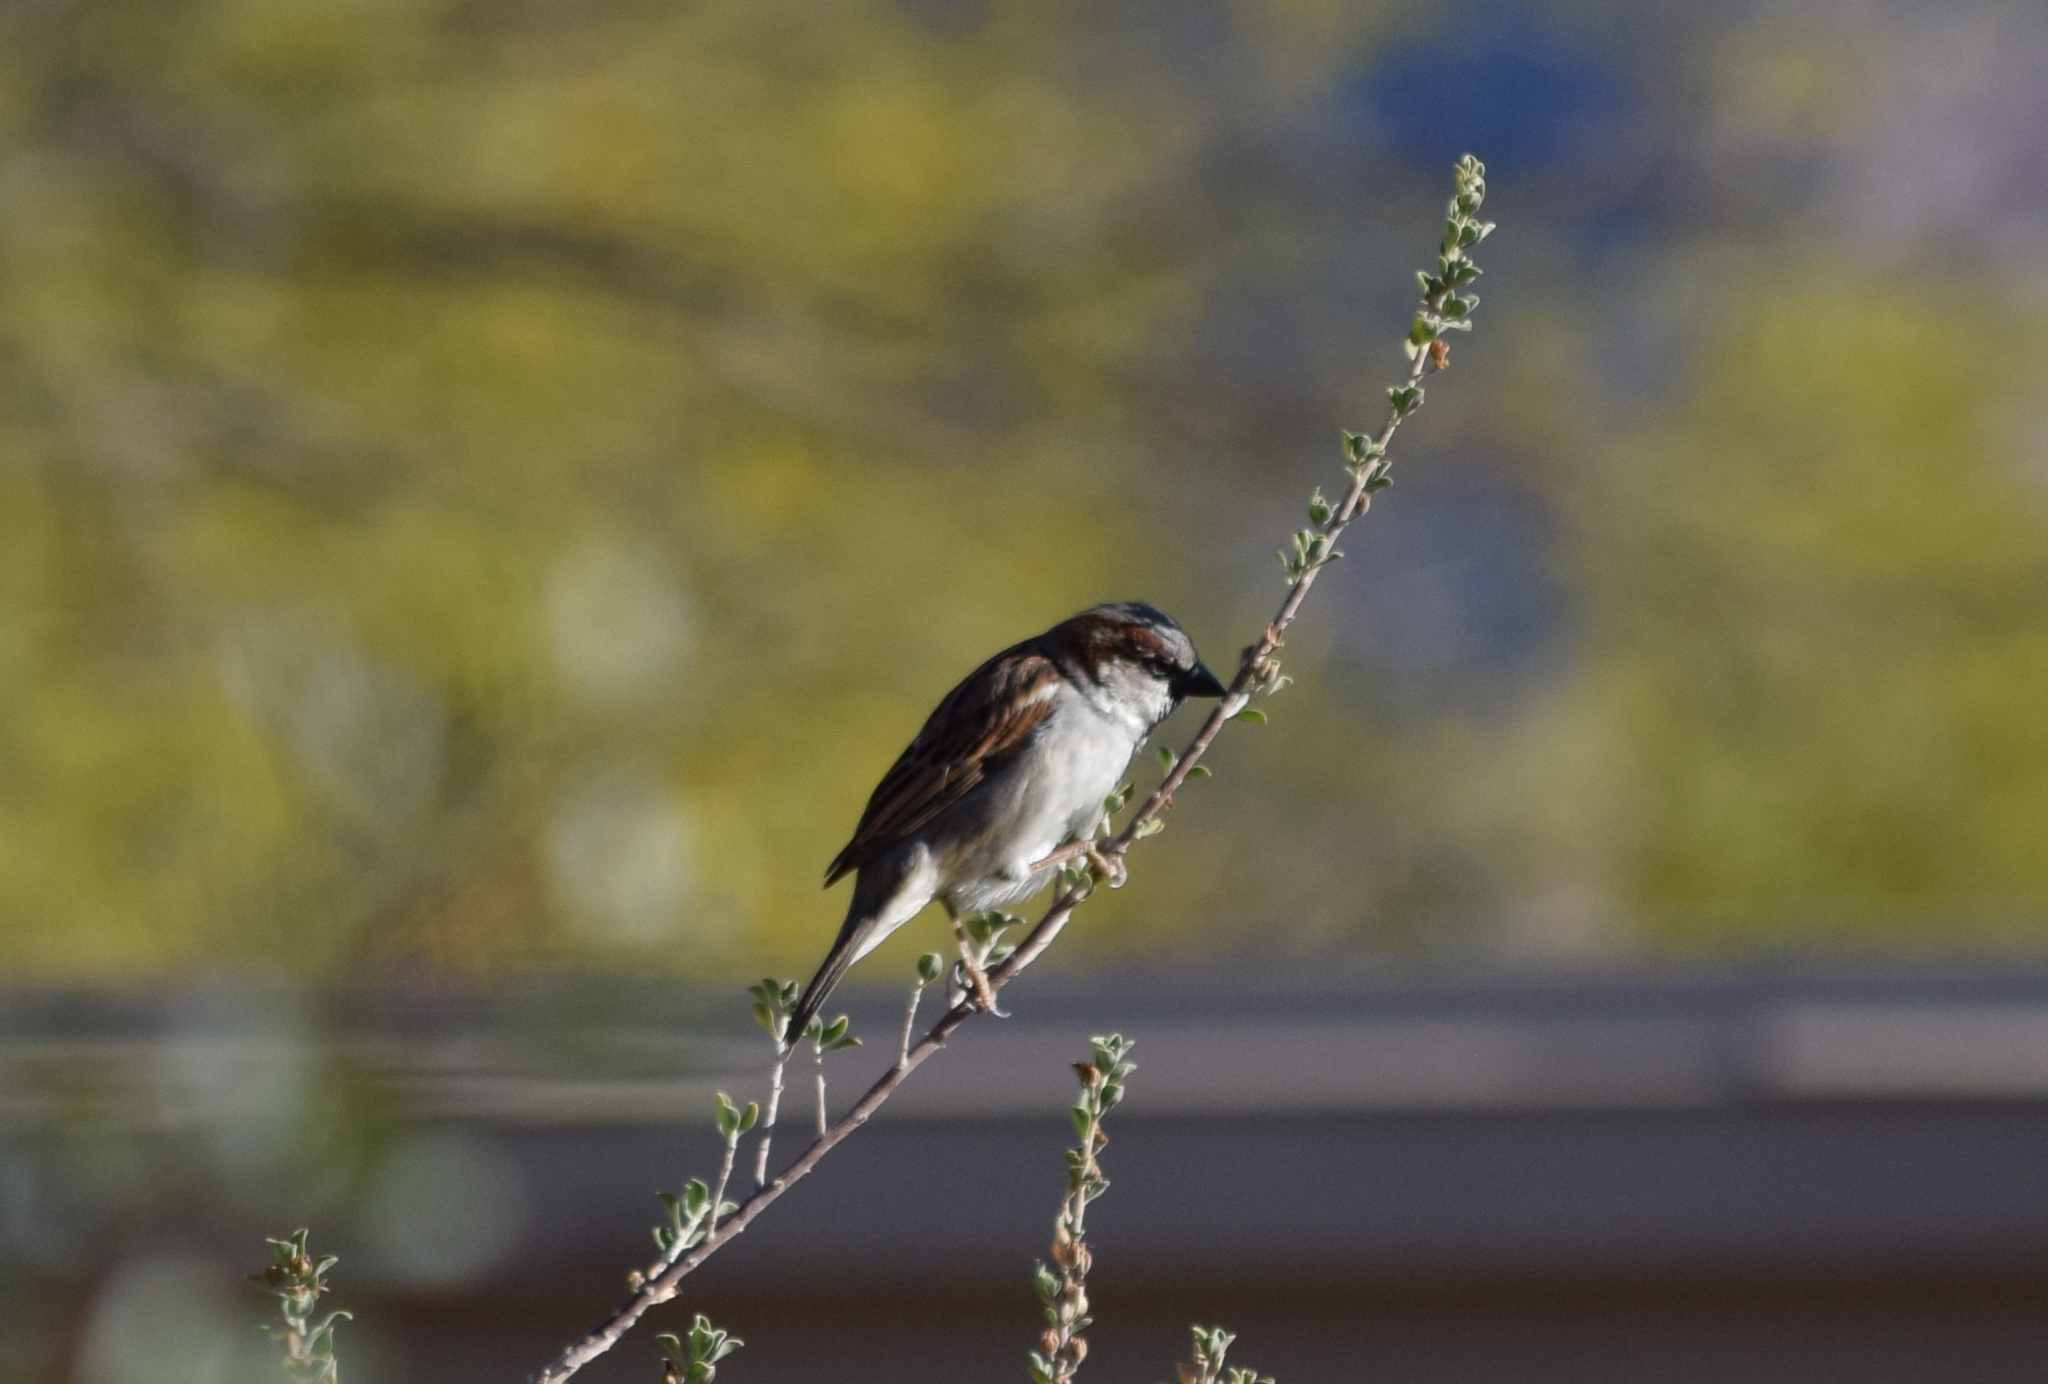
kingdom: Animalia
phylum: Chordata
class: Aves
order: Passeriformes
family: Passeridae
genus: Passer
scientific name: Passer domesticus
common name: House sparrow
